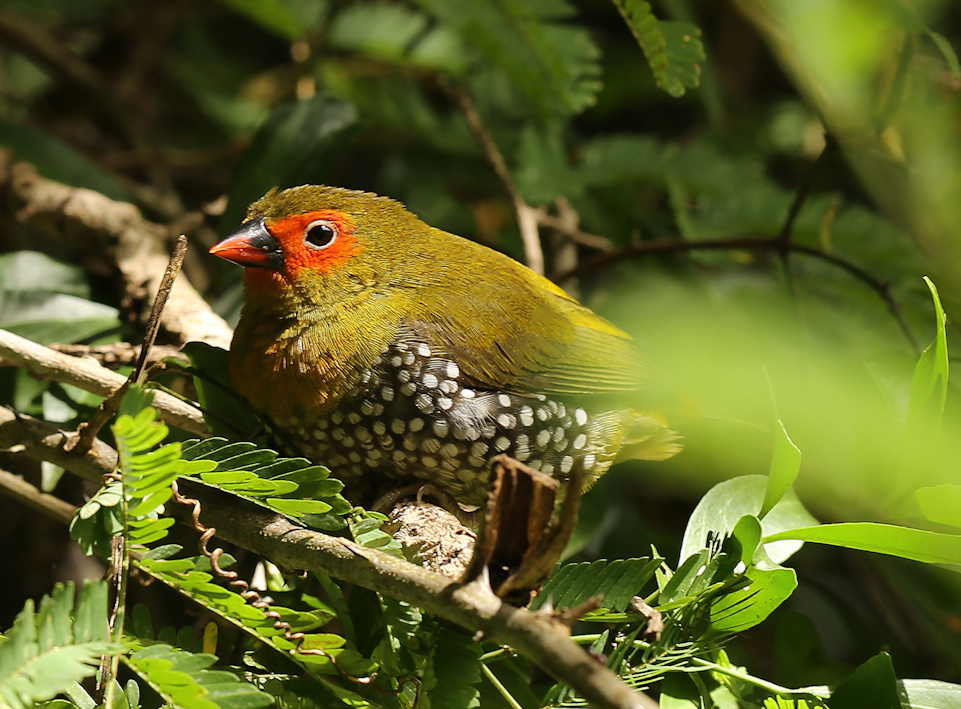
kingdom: Animalia
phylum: Chordata
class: Aves
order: Passeriformes
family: Estrildidae
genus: Mandingoa
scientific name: Mandingoa nitidula
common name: Green twinspot
